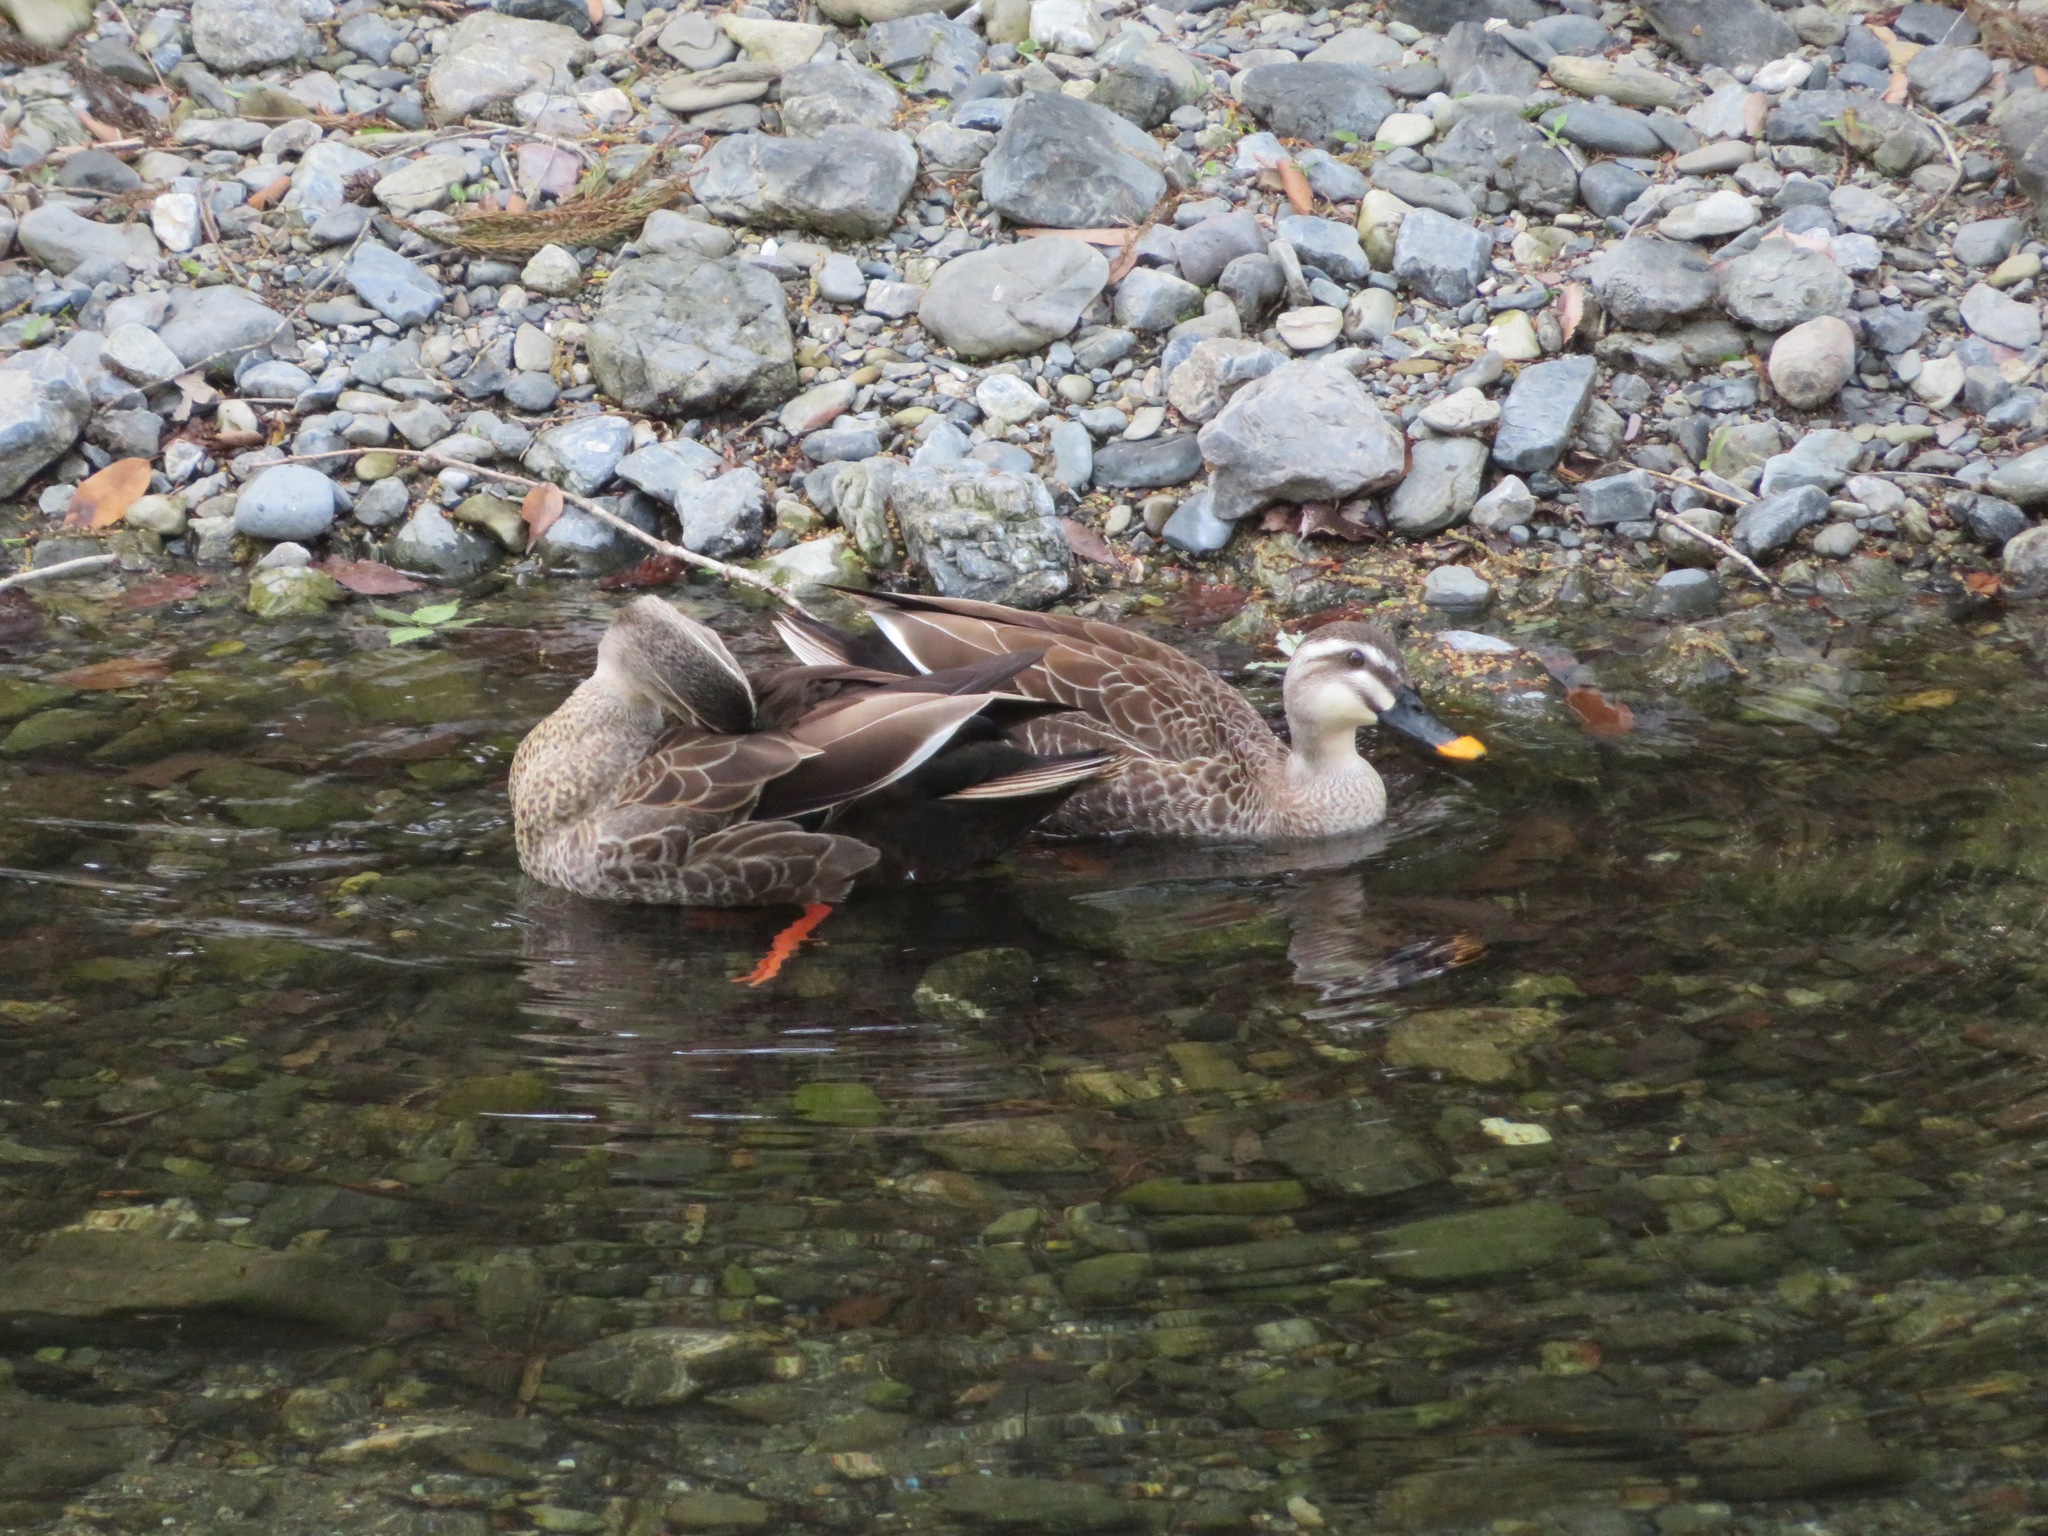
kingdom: Animalia
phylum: Chordata
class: Aves
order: Anseriformes
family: Anatidae
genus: Anas
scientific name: Anas zonorhyncha
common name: Eastern spot-billed duck
